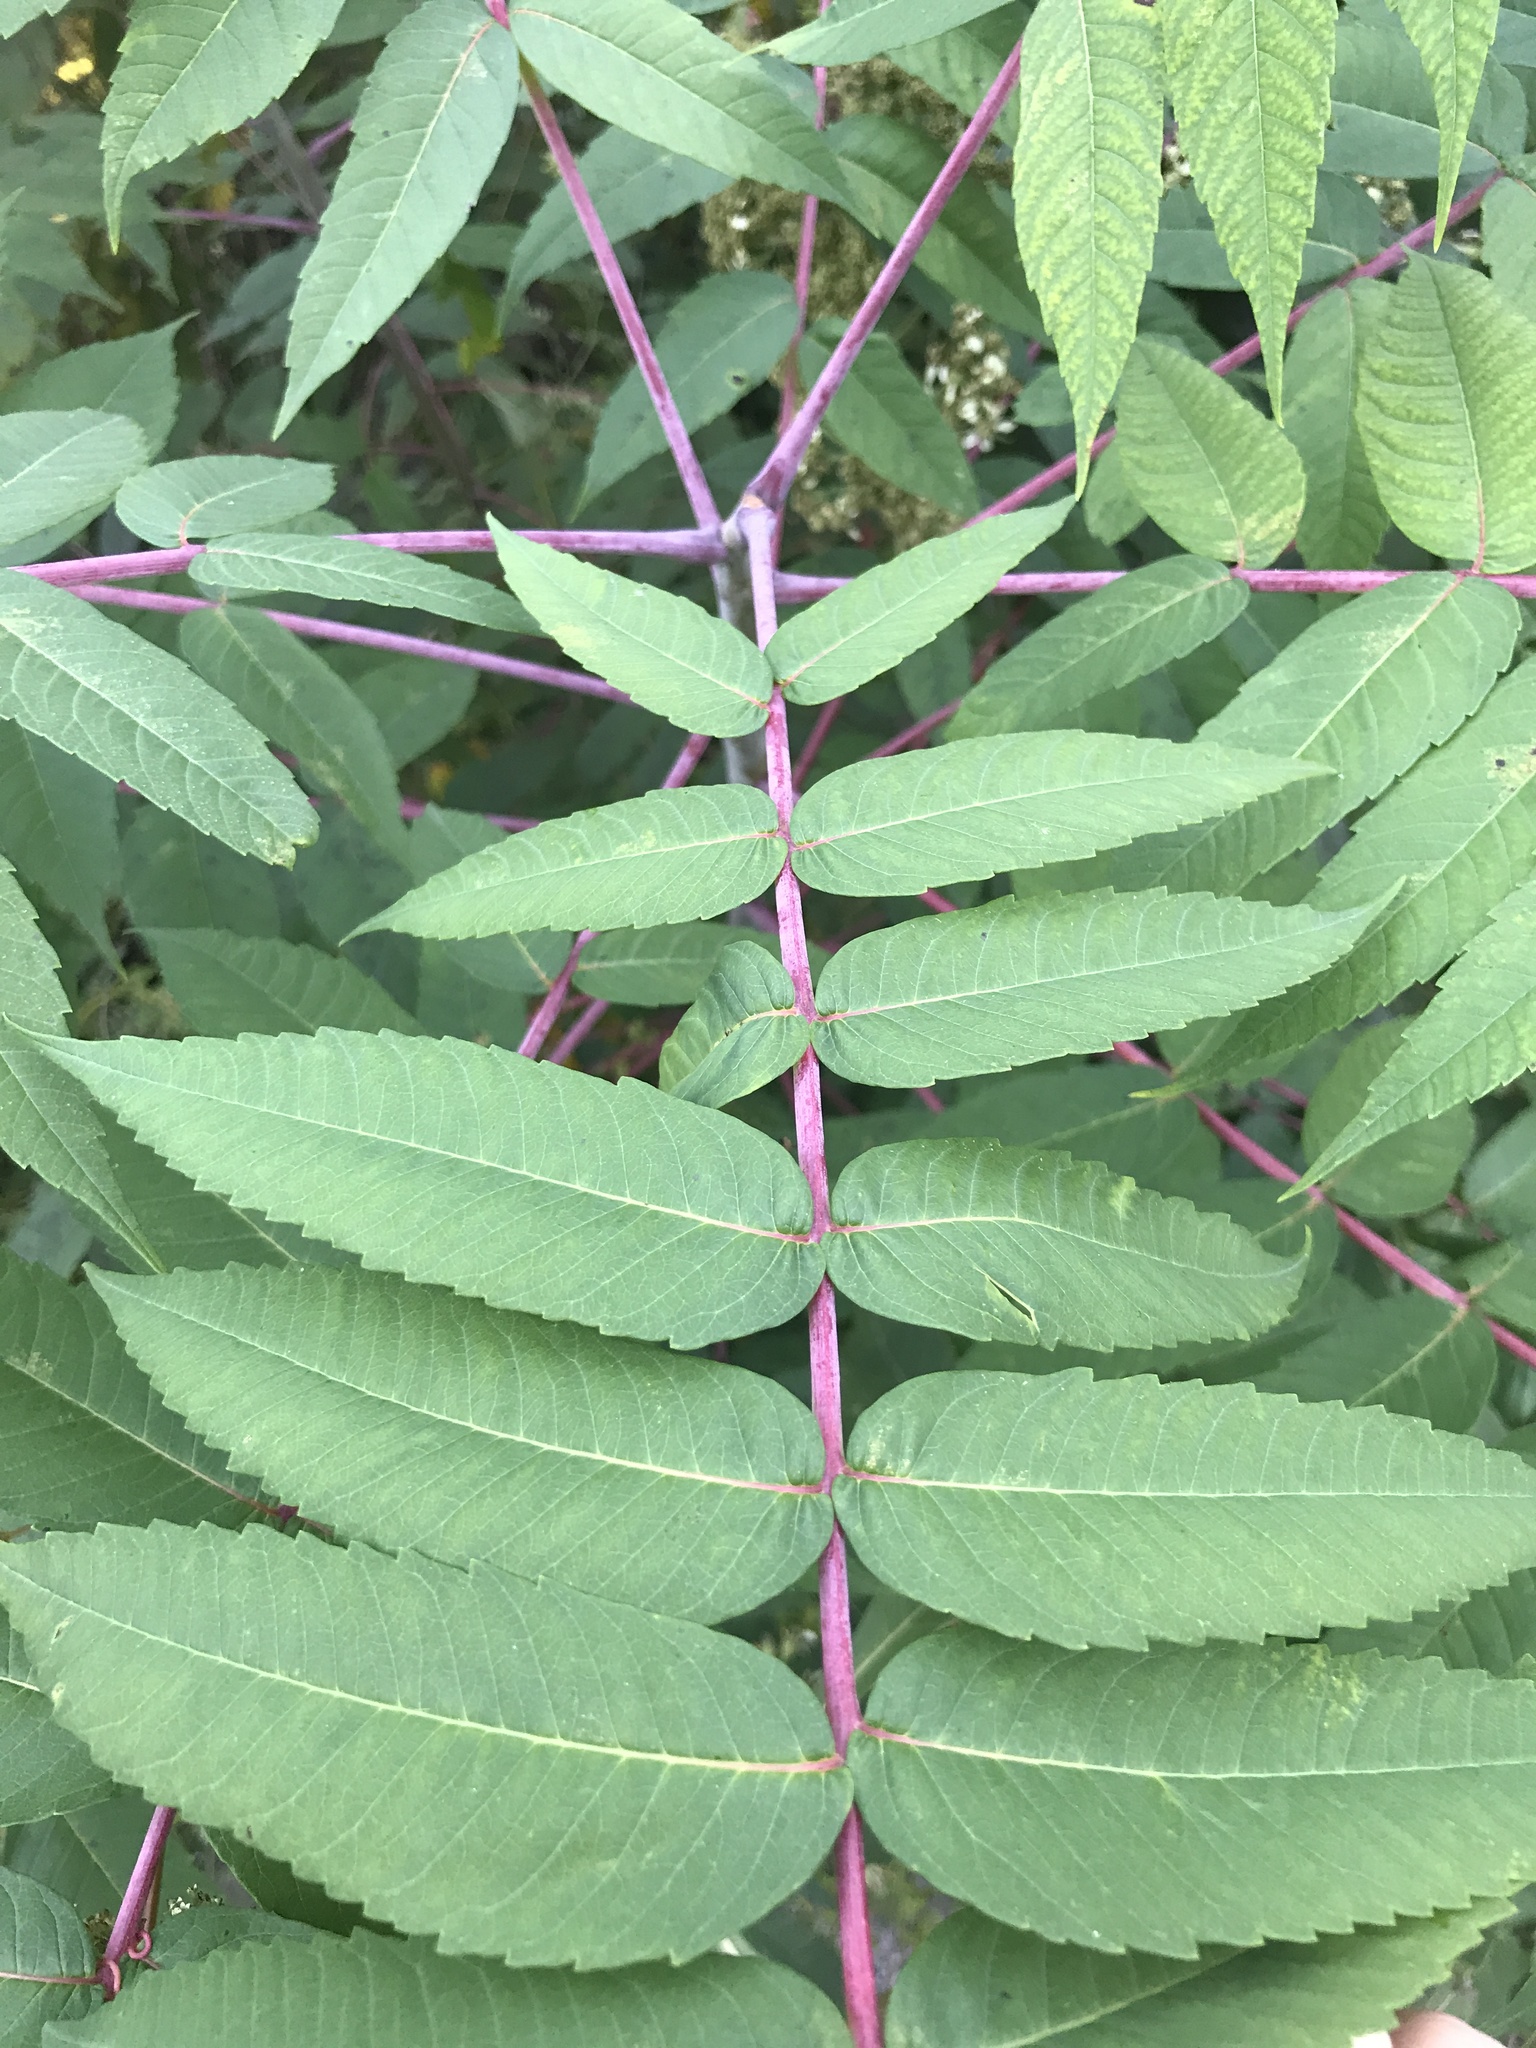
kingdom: Plantae
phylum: Tracheophyta
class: Magnoliopsida
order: Sapindales
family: Anacardiaceae
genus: Rhus
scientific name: Rhus glabra
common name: Scarlet sumac
